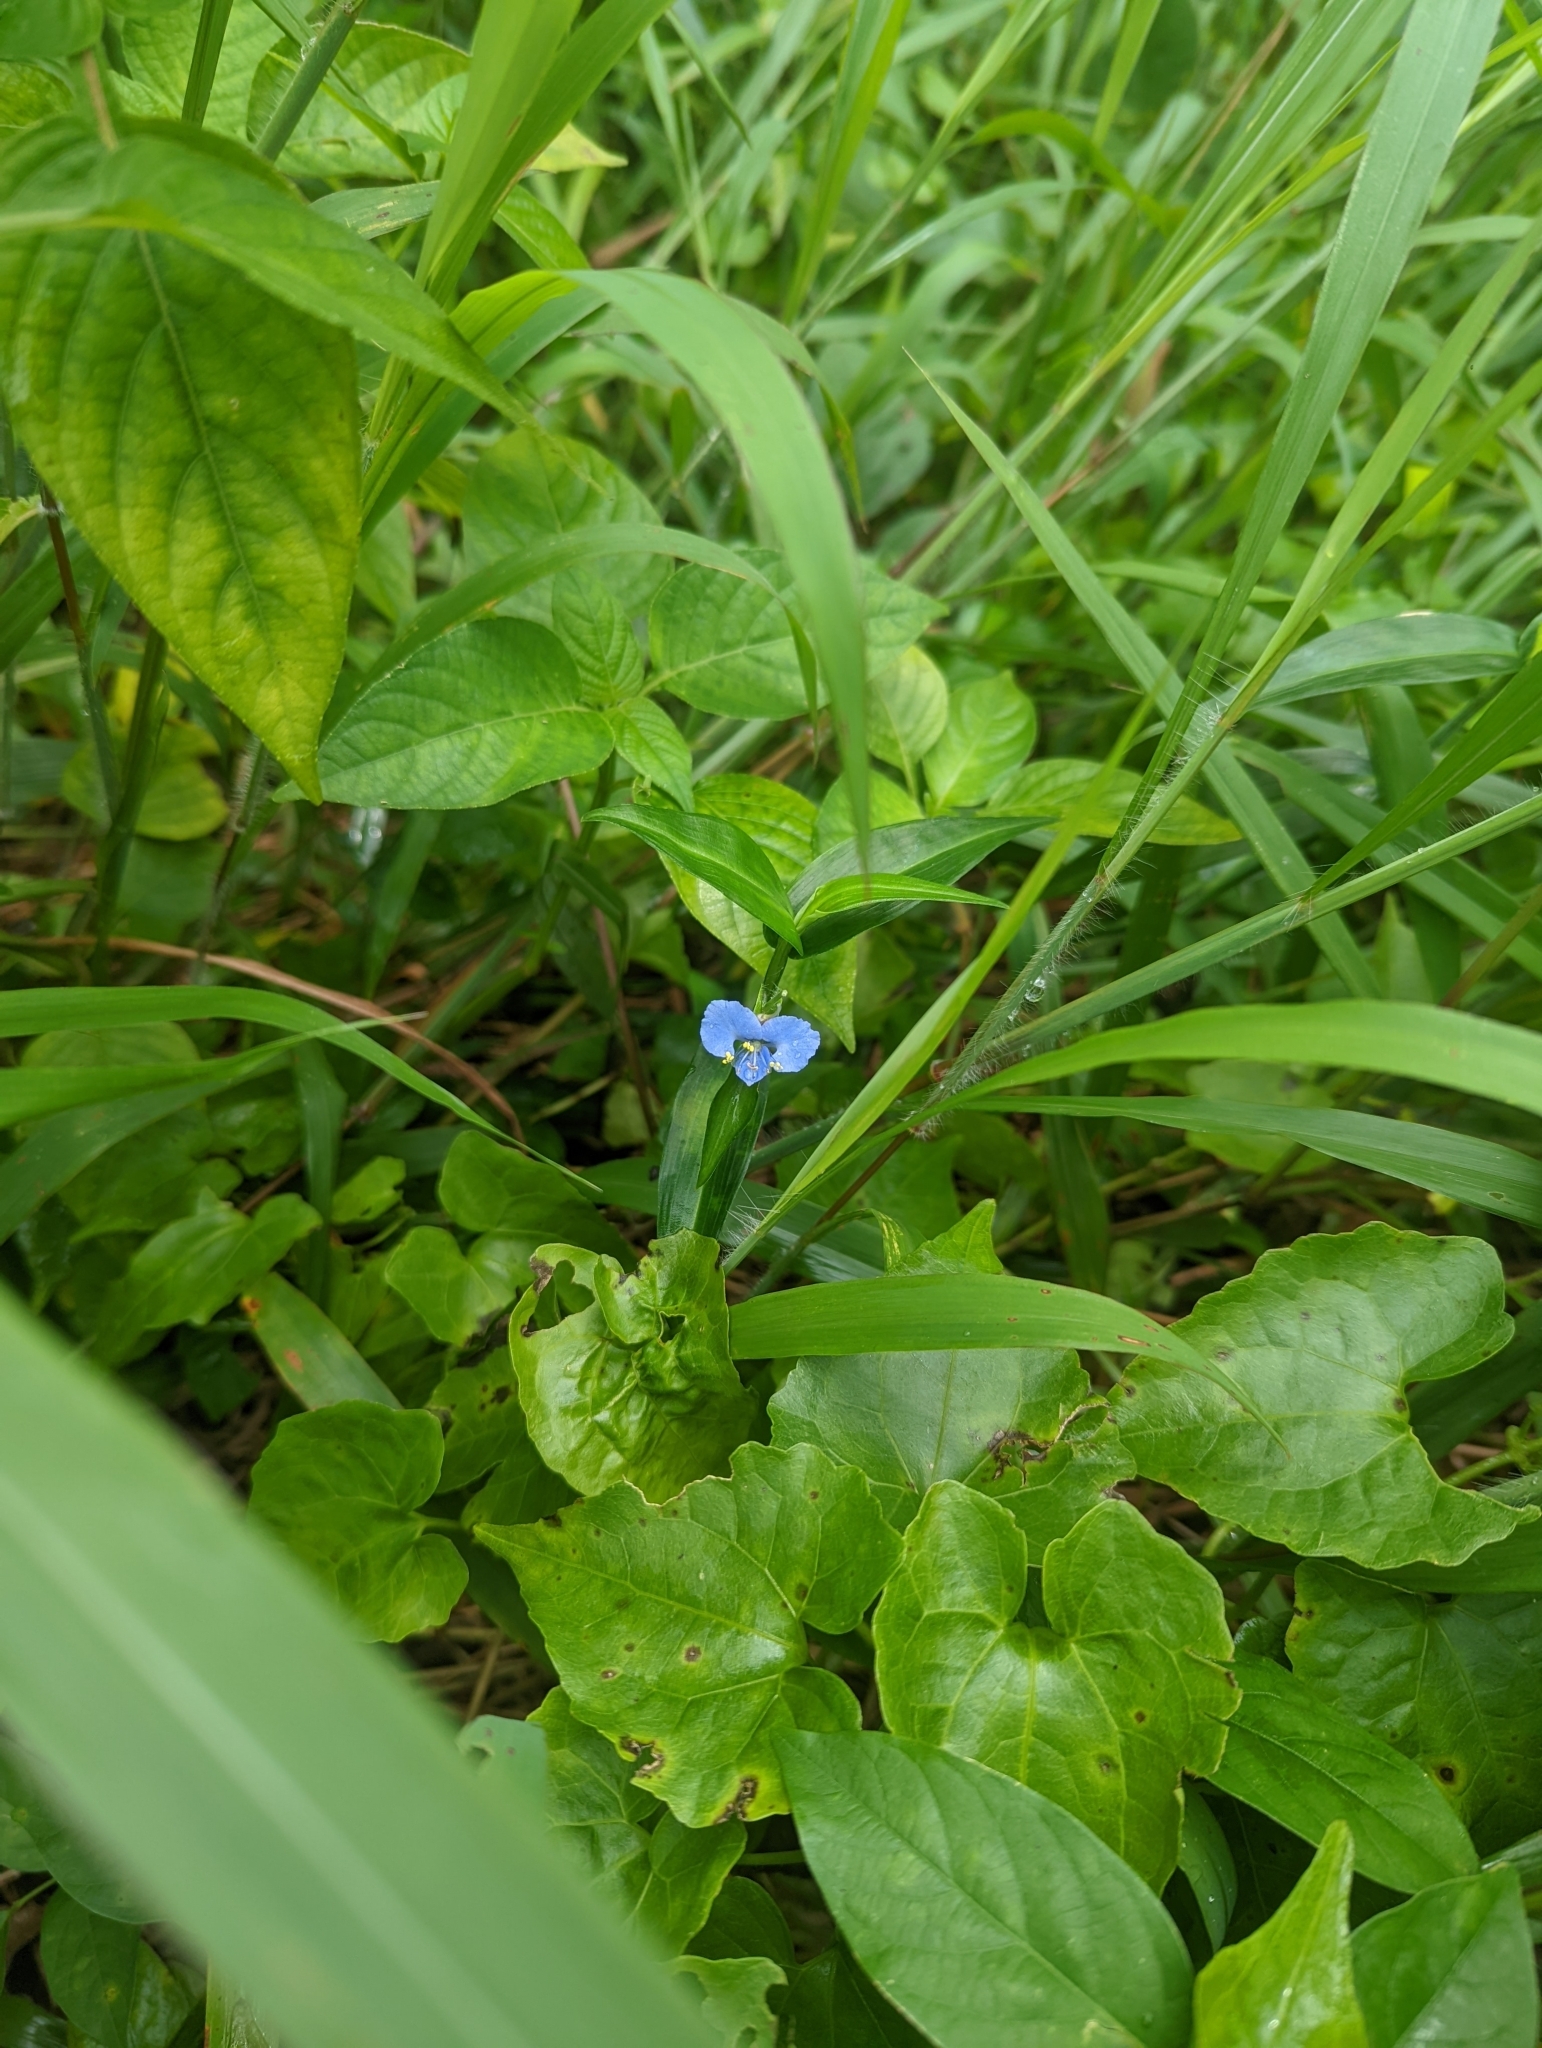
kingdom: Plantae
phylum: Tracheophyta
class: Liliopsida
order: Commelinales
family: Commelinaceae
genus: Commelina
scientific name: Commelina diffusa
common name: Climbing dayflower
